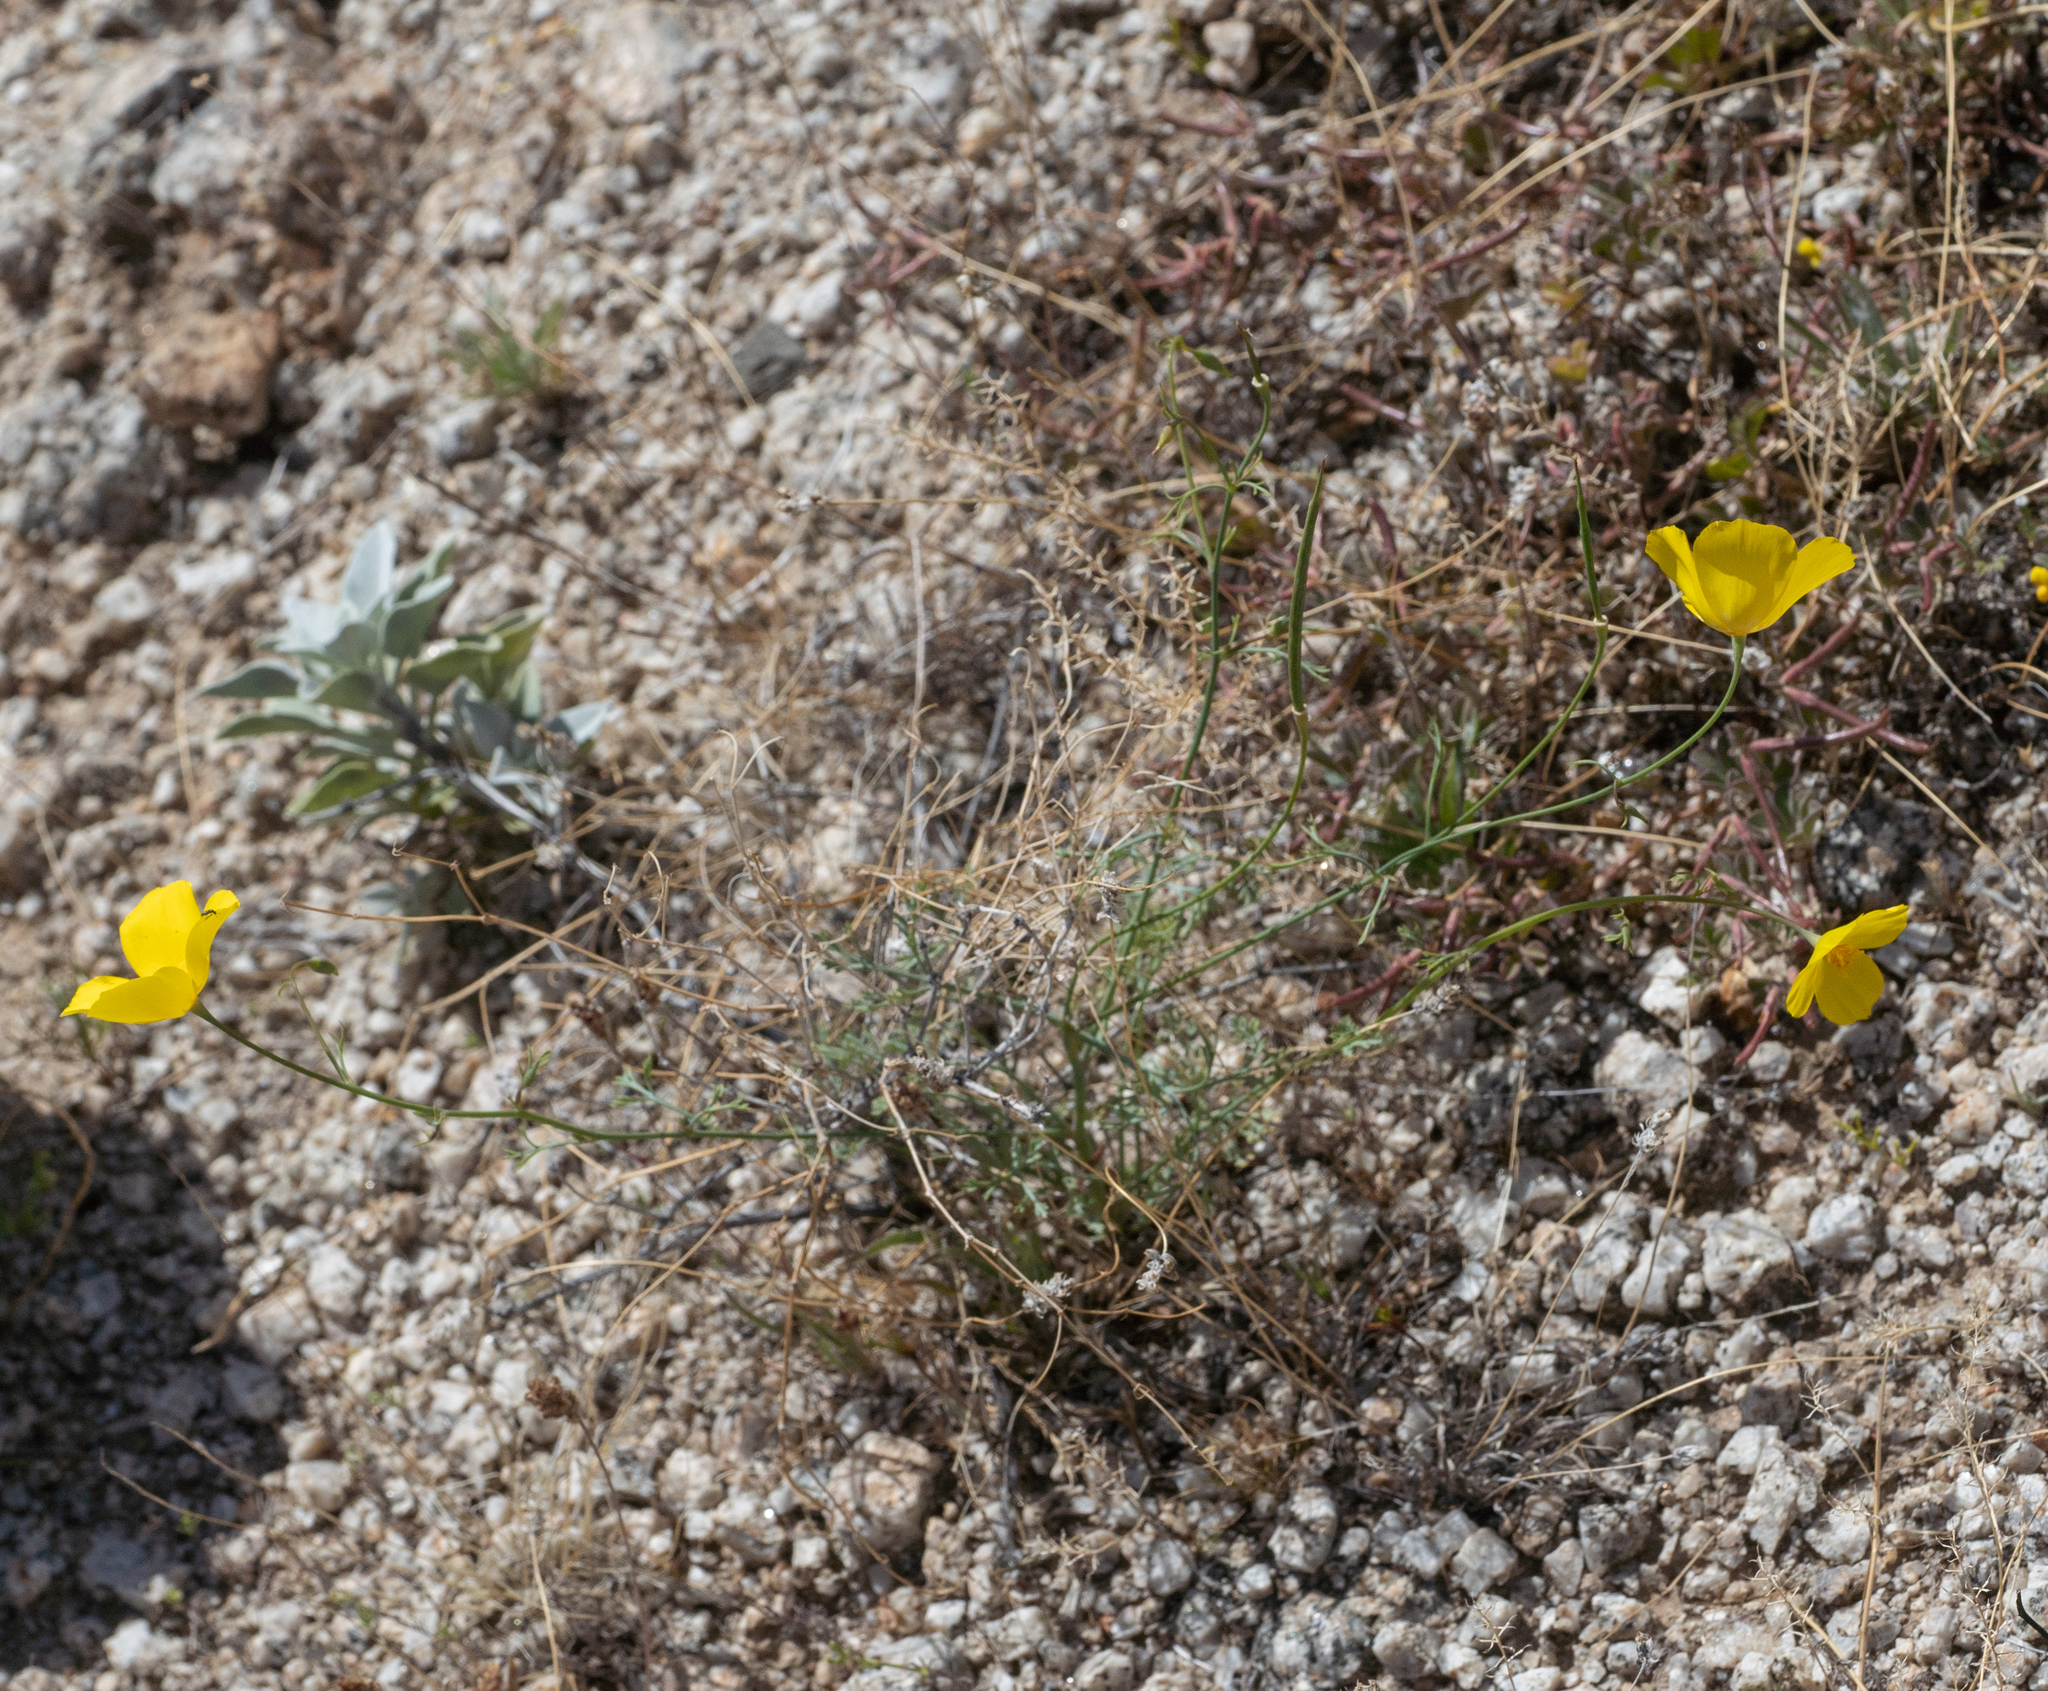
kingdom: Plantae
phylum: Tracheophyta
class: Magnoliopsida
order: Ranunculales
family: Papaveraceae
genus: Eschscholzia
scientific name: Eschscholzia parishii
